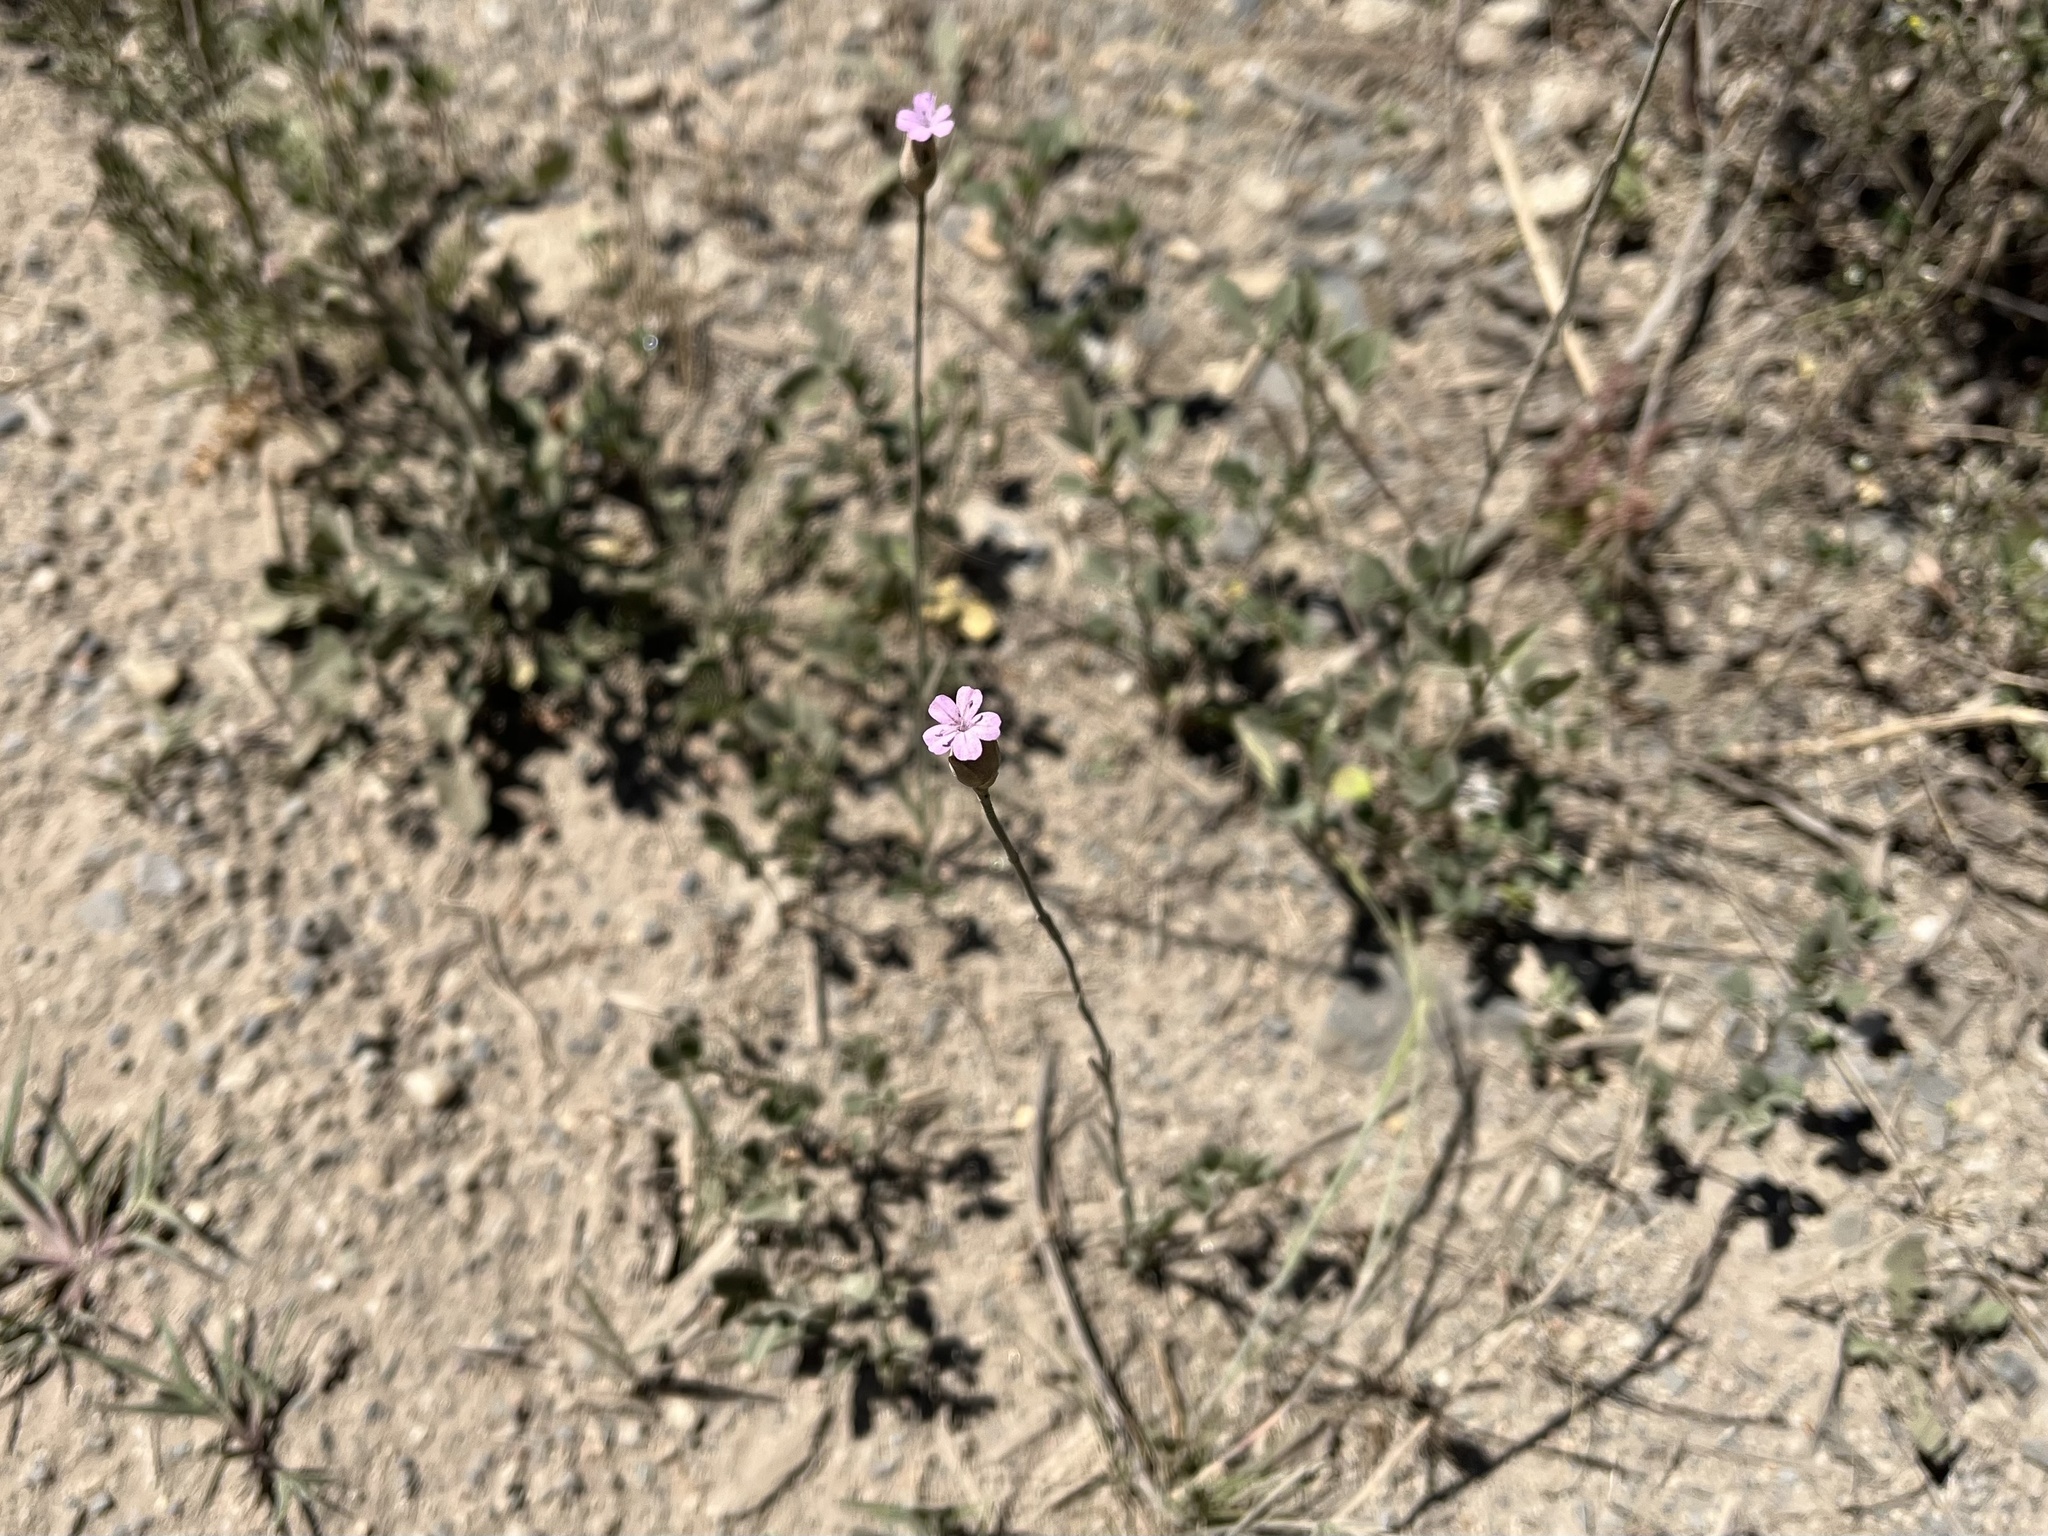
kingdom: Plantae
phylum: Tracheophyta
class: Magnoliopsida
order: Caryophyllales
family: Caryophyllaceae
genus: Petrorhagia
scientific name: Petrorhagia prolifera
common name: Proliferous pink
